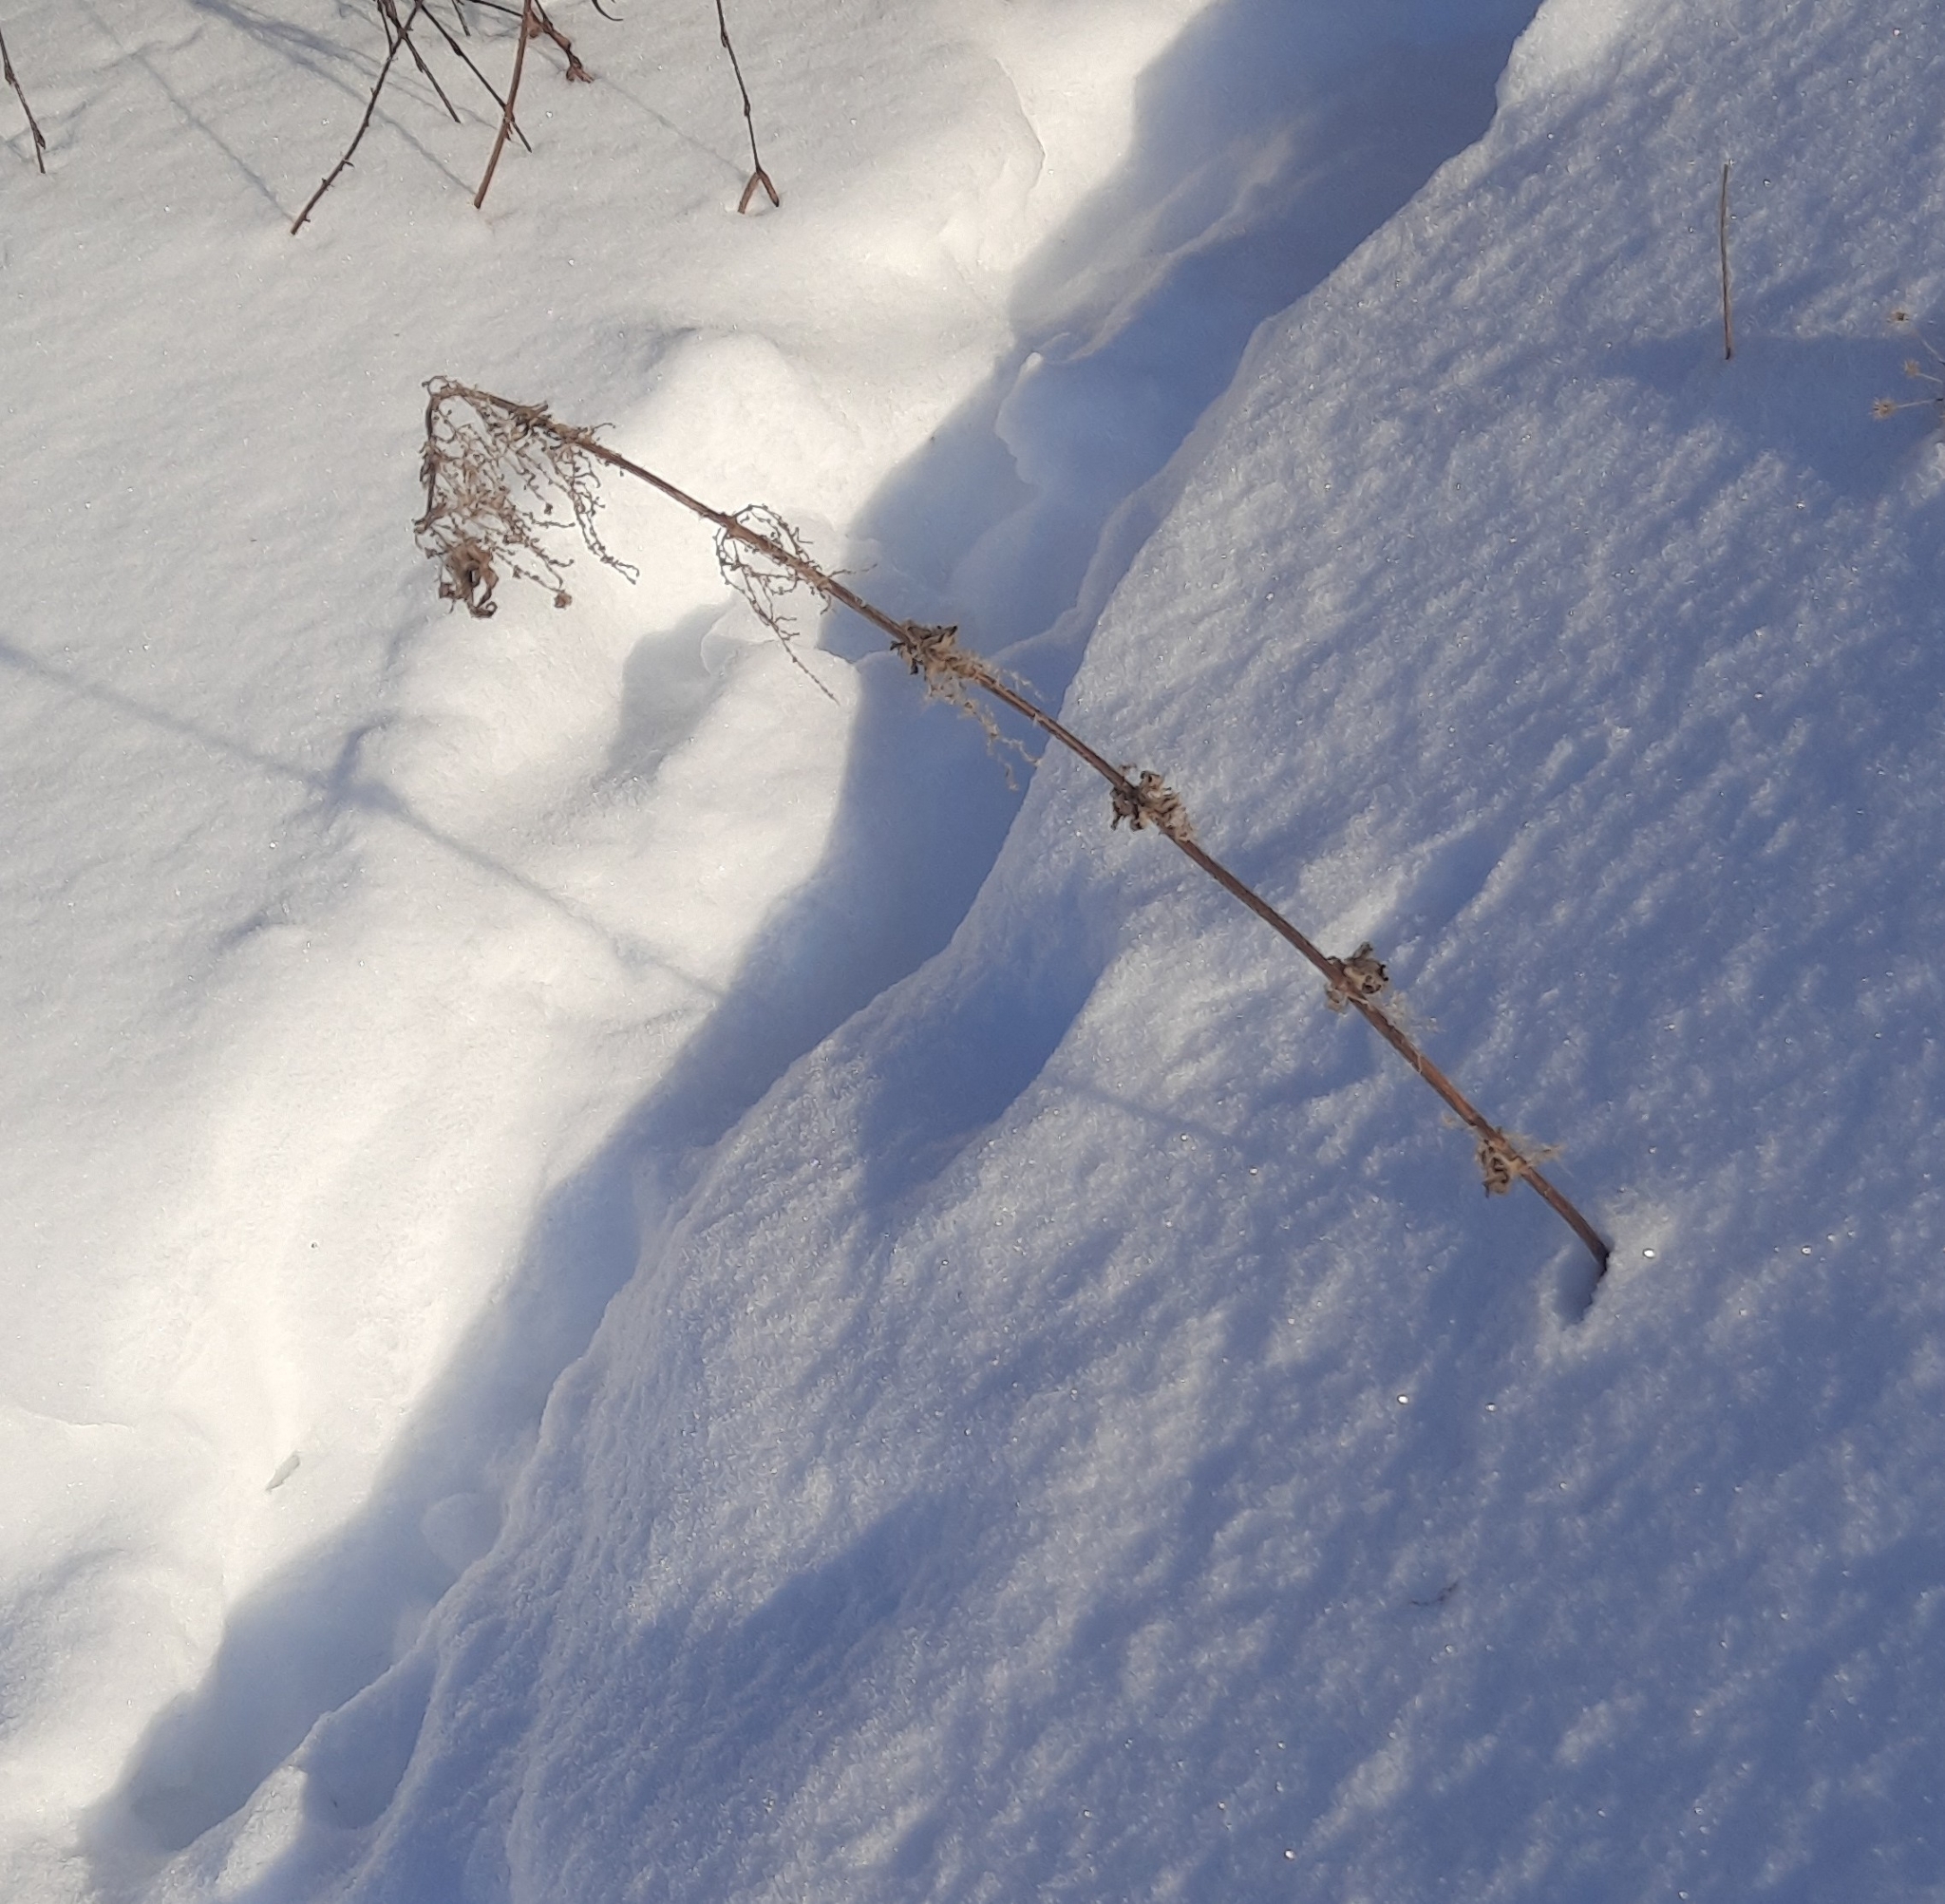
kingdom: Plantae
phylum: Tracheophyta
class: Magnoliopsida
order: Rosales
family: Urticaceae
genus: Urtica
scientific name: Urtica dioica
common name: Common nettle
